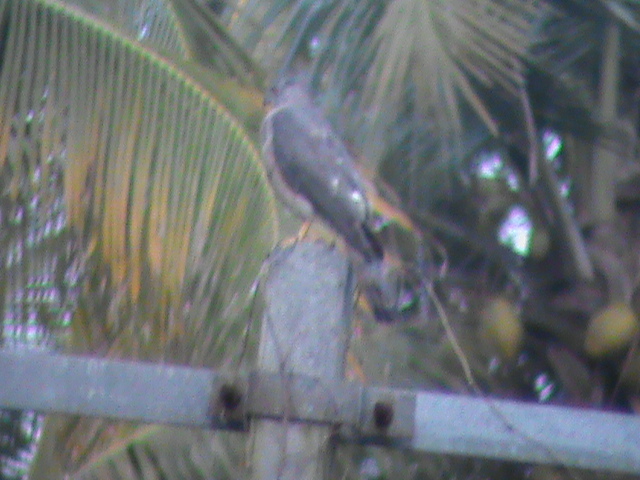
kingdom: Animalia
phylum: Chordata
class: Aves
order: Accipitriformes
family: Accipitridae
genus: Accipiter
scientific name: Accipiter badius
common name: Shikra
